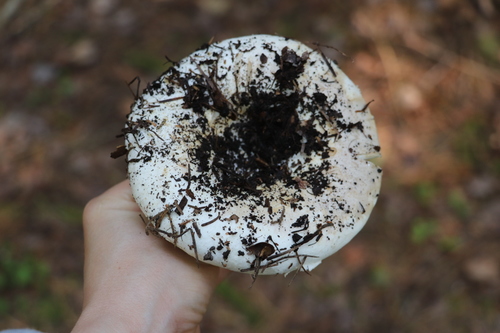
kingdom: Fungi
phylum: Basidiomycota
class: Agaricomycetes
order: Russulales
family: Russulaceae
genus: Russula
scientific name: Russula delica
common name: Milk white brittlegill
